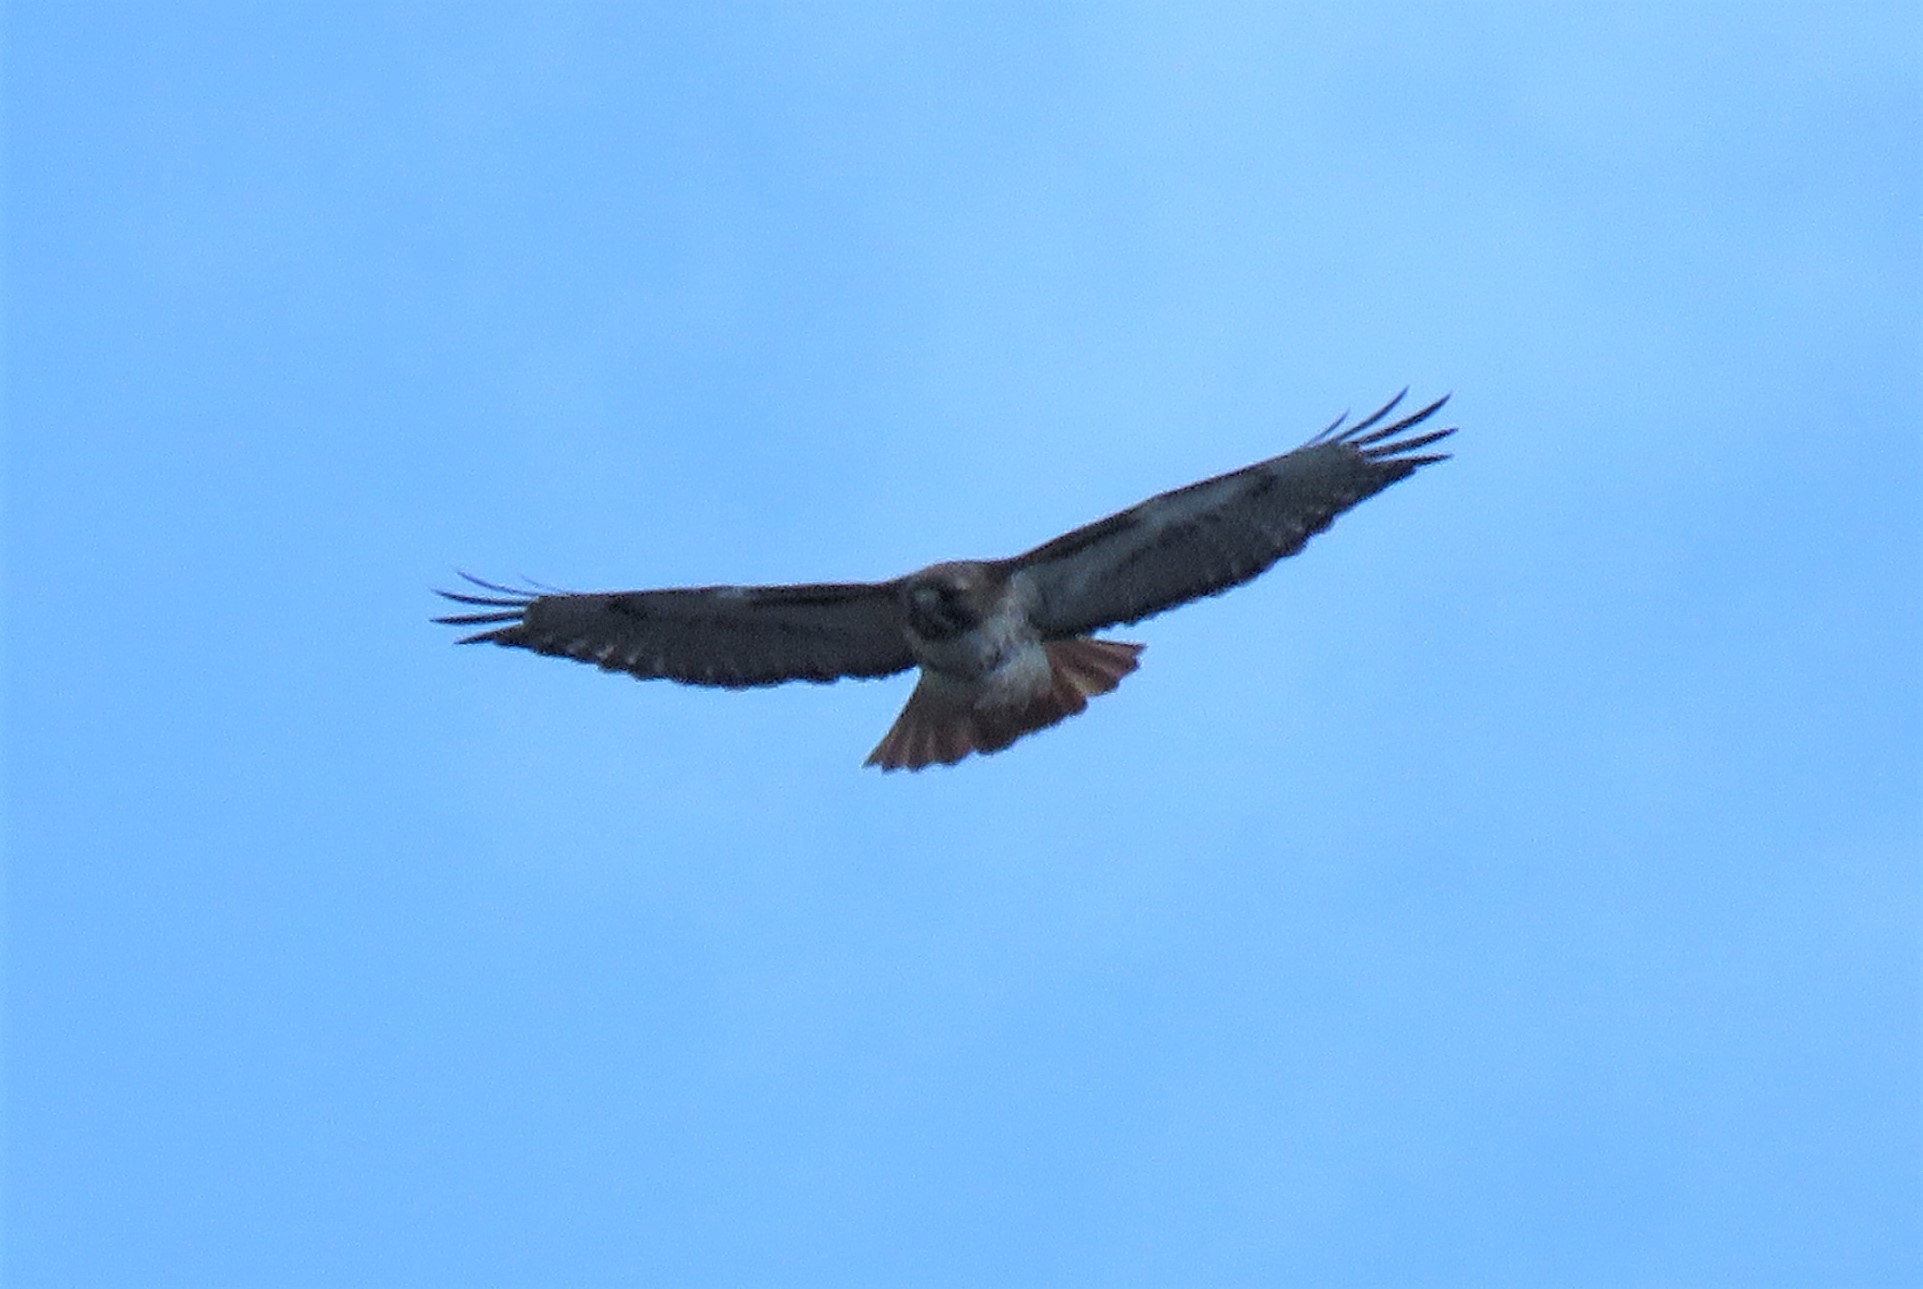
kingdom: Animalia
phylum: Chordata
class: Aves
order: Accipitriformes
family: Accipitridae
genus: Buteo
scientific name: Buteo jamaicensis
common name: Red-tailed hawk
